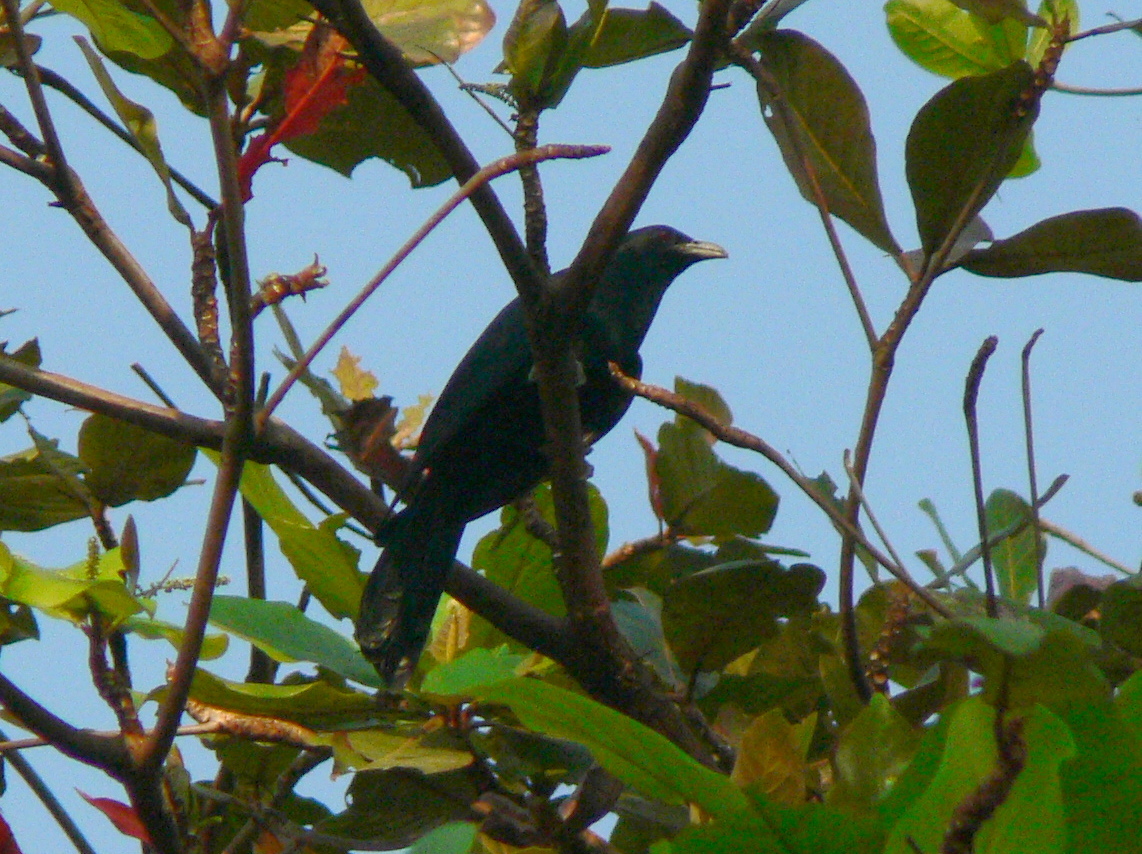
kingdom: Animalia
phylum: Chordata
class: Aves
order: Cuculiformes
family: Cuculidae
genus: Eudynamys
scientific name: Eudynamys scolopaceus
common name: Asian koel
